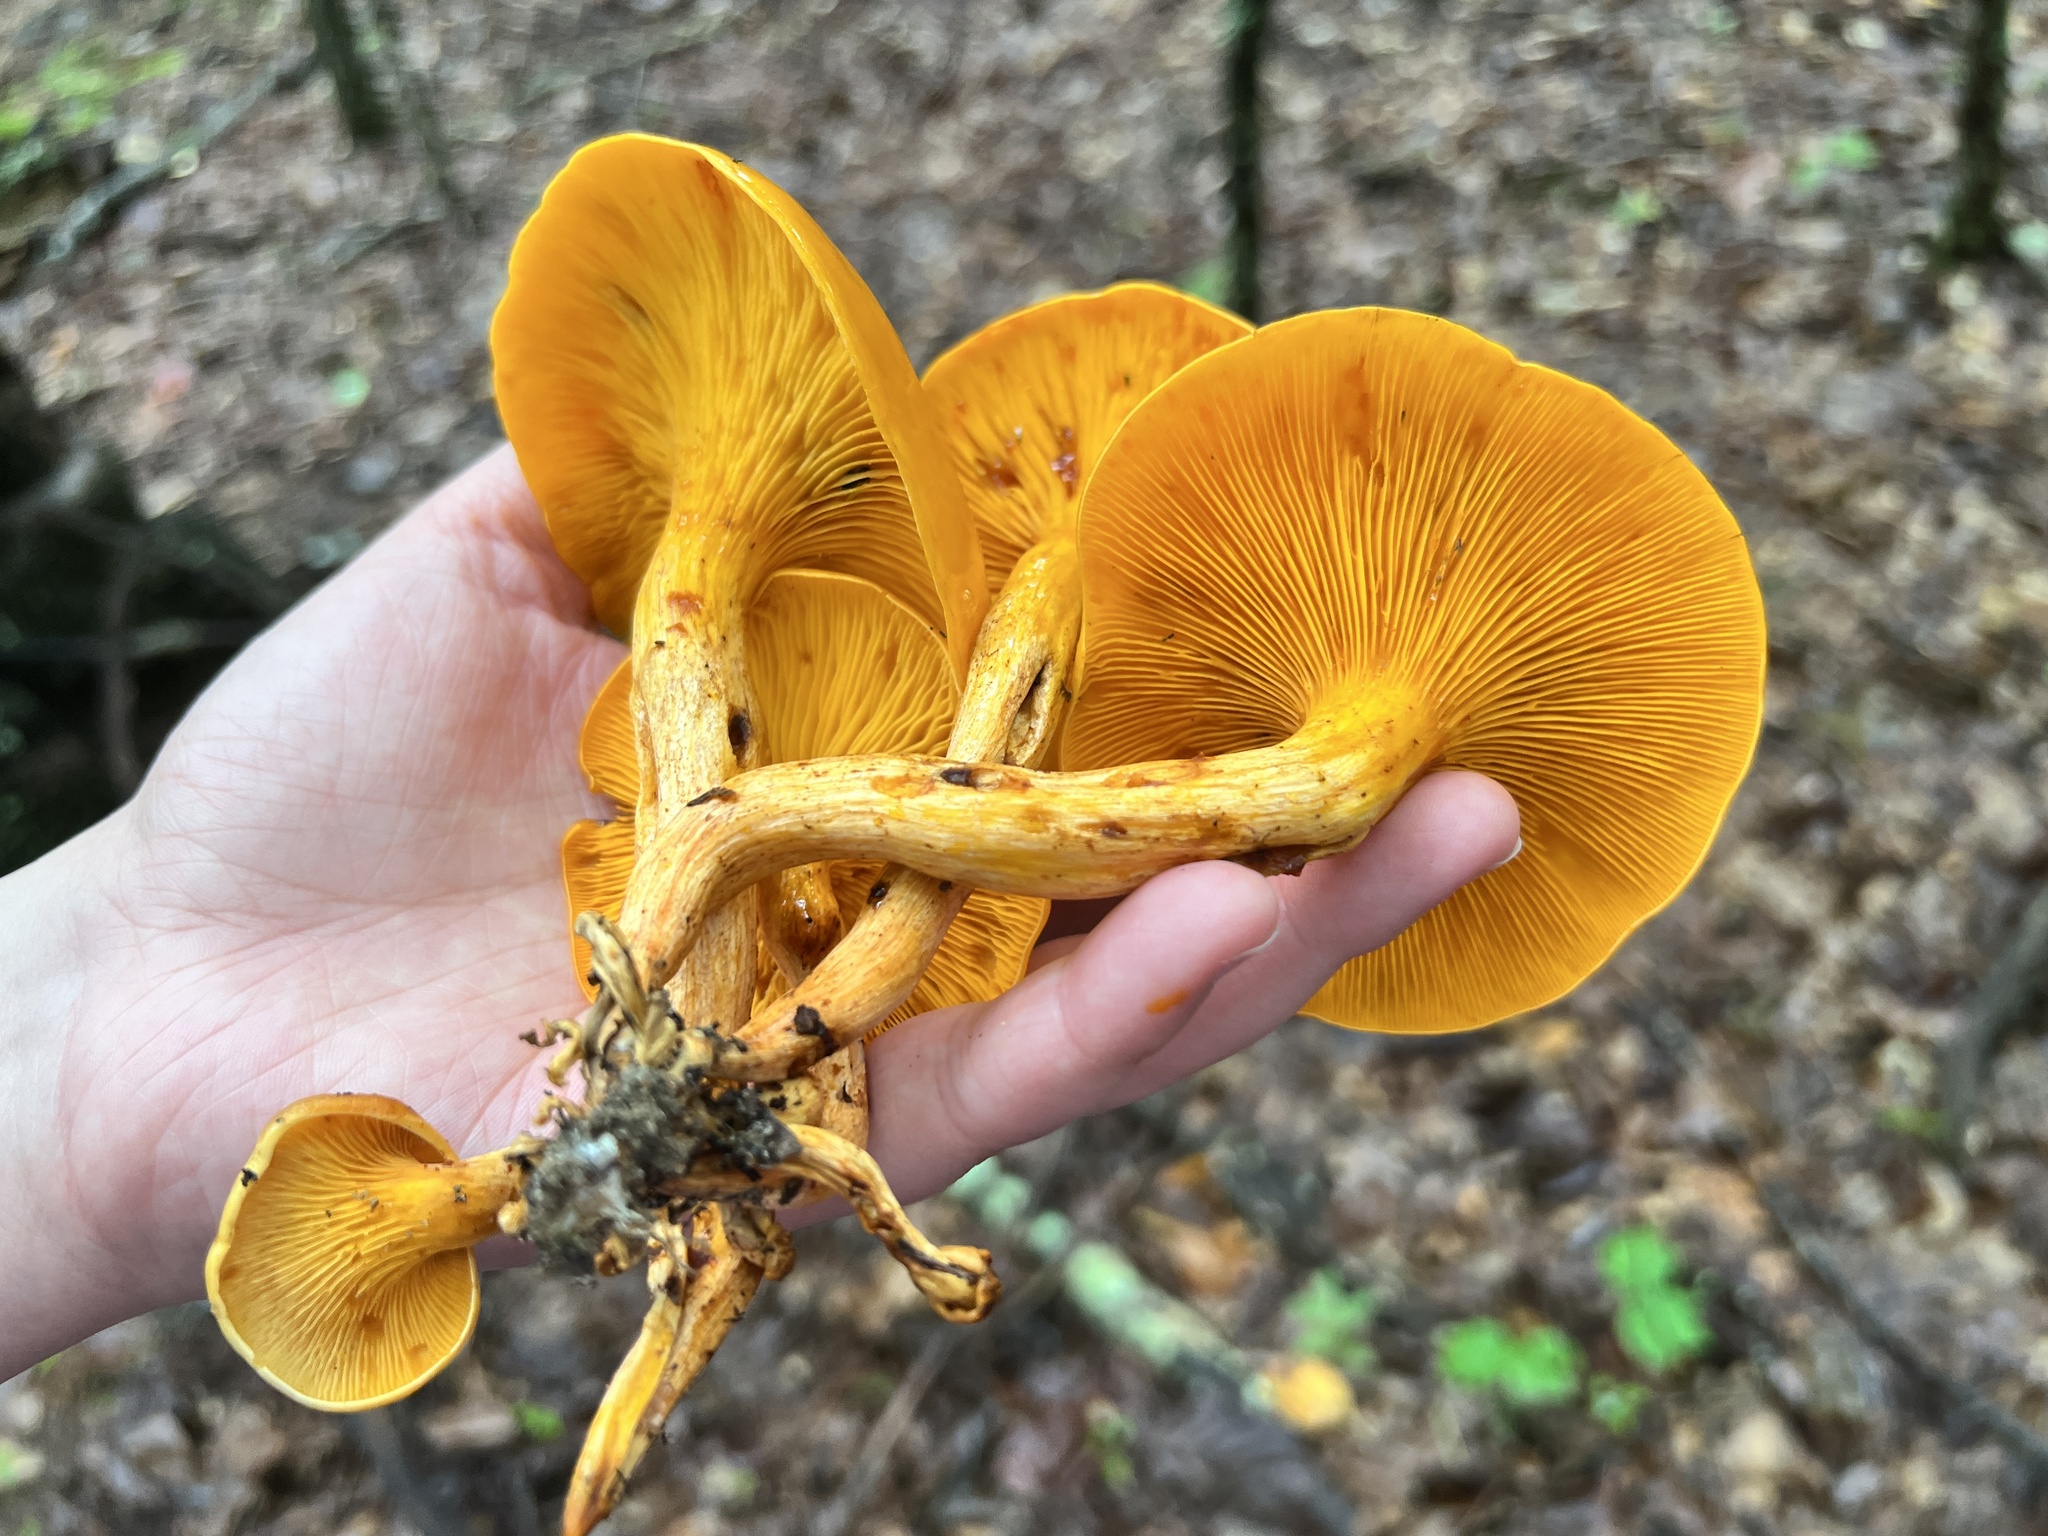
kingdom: Fungi
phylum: Basidiomycota
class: Agaricomycetes
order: Agaricales
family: Omphalotaceae
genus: Omphalotus
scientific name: Omphalotus illudens
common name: Jack o lantern
